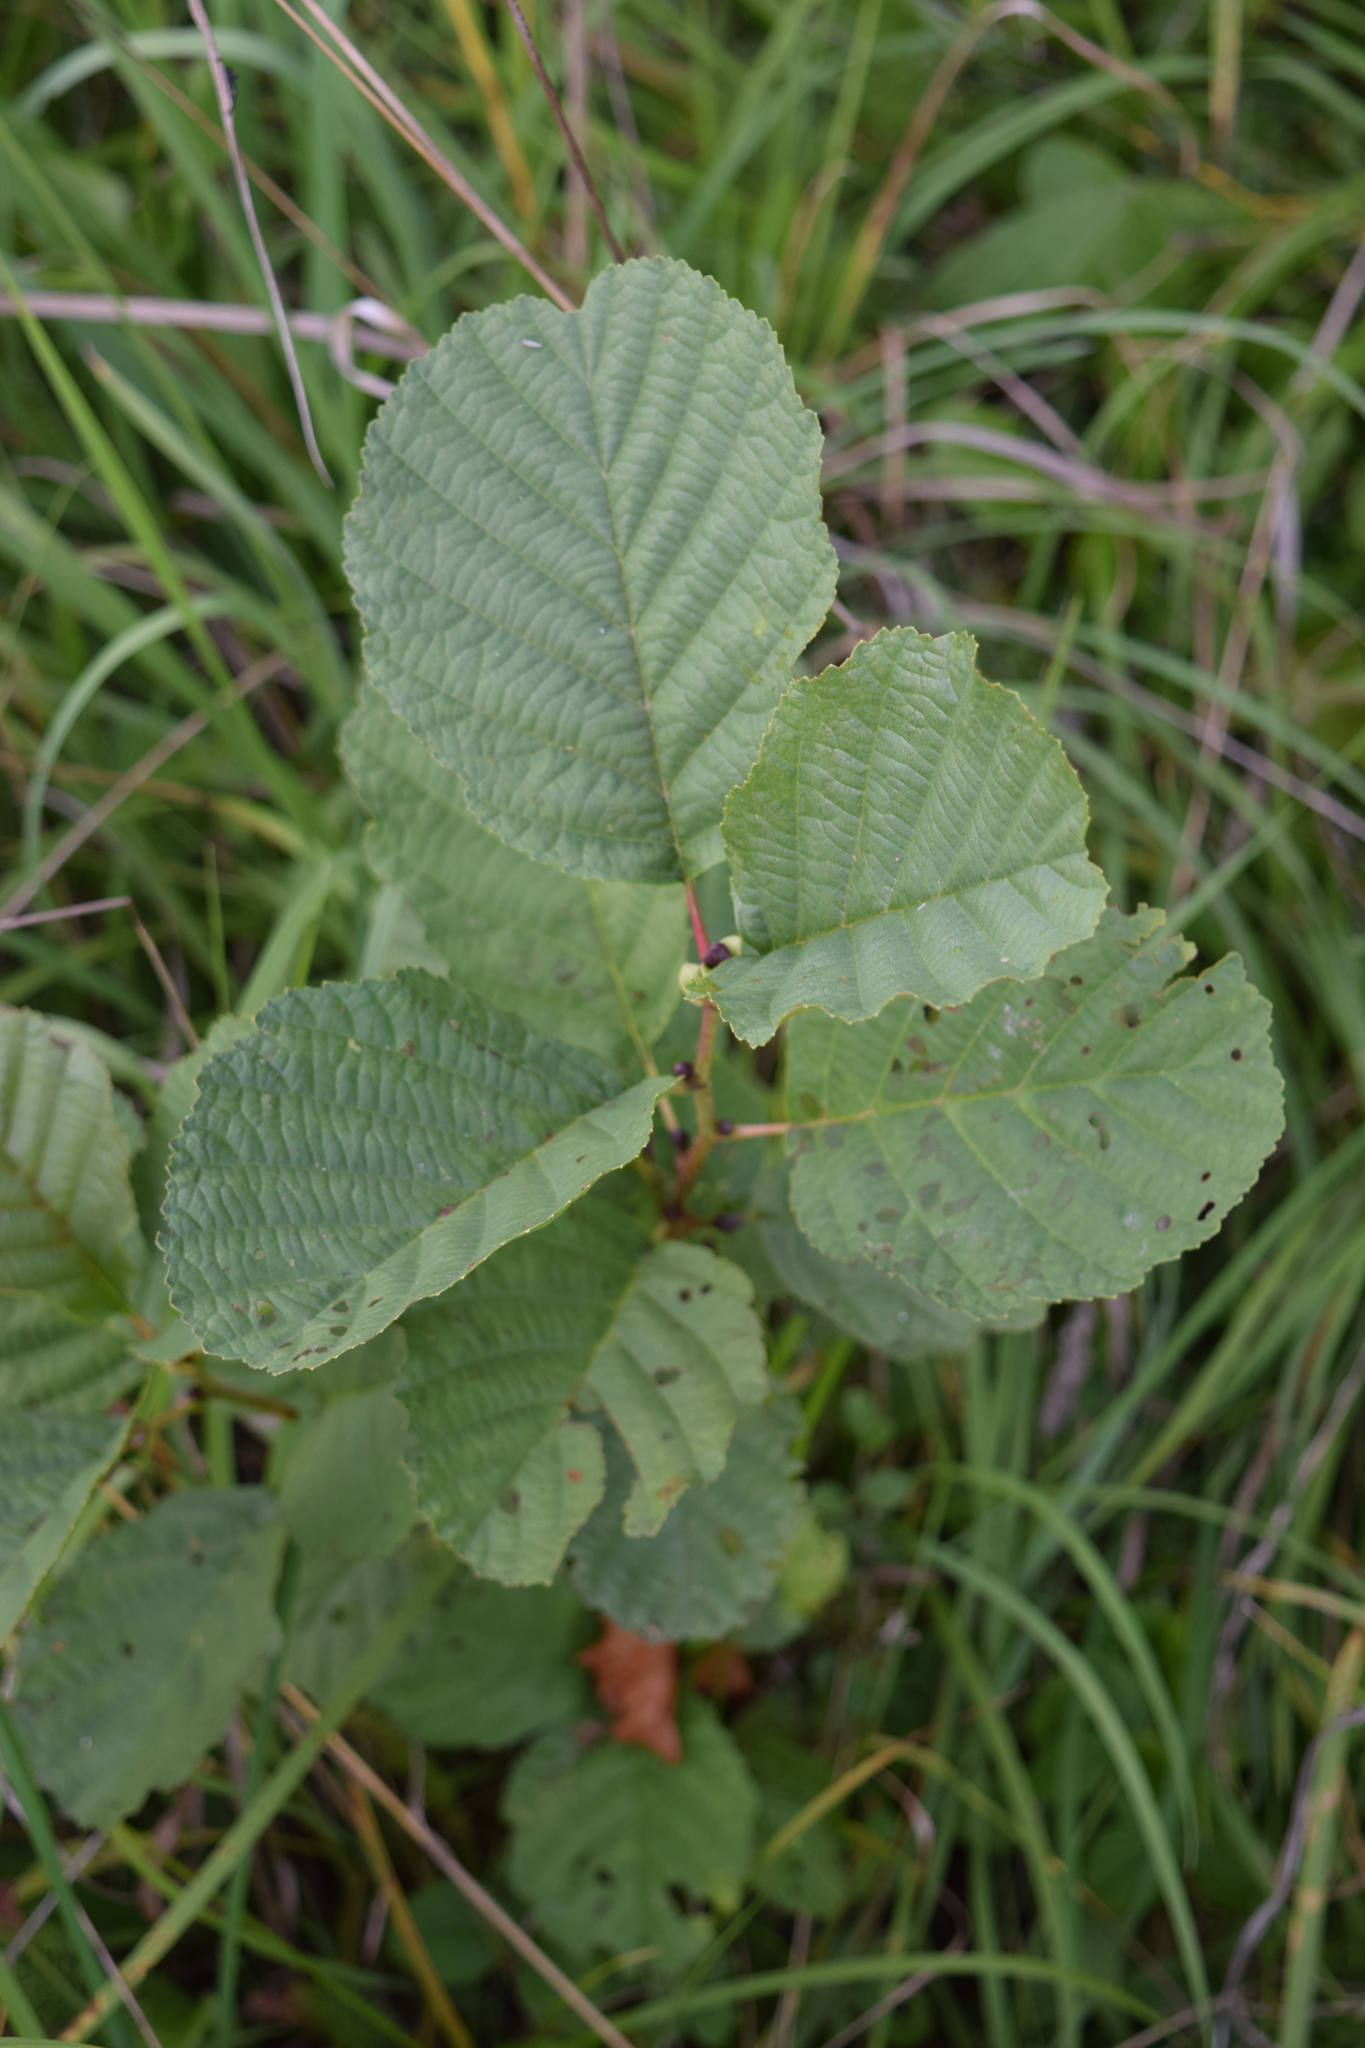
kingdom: Plantae
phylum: Tracheophyta
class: Magnoliopsida
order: Fagales
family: Betulaceae
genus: Alnus
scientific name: Alnus glutinosa
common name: Black alder
